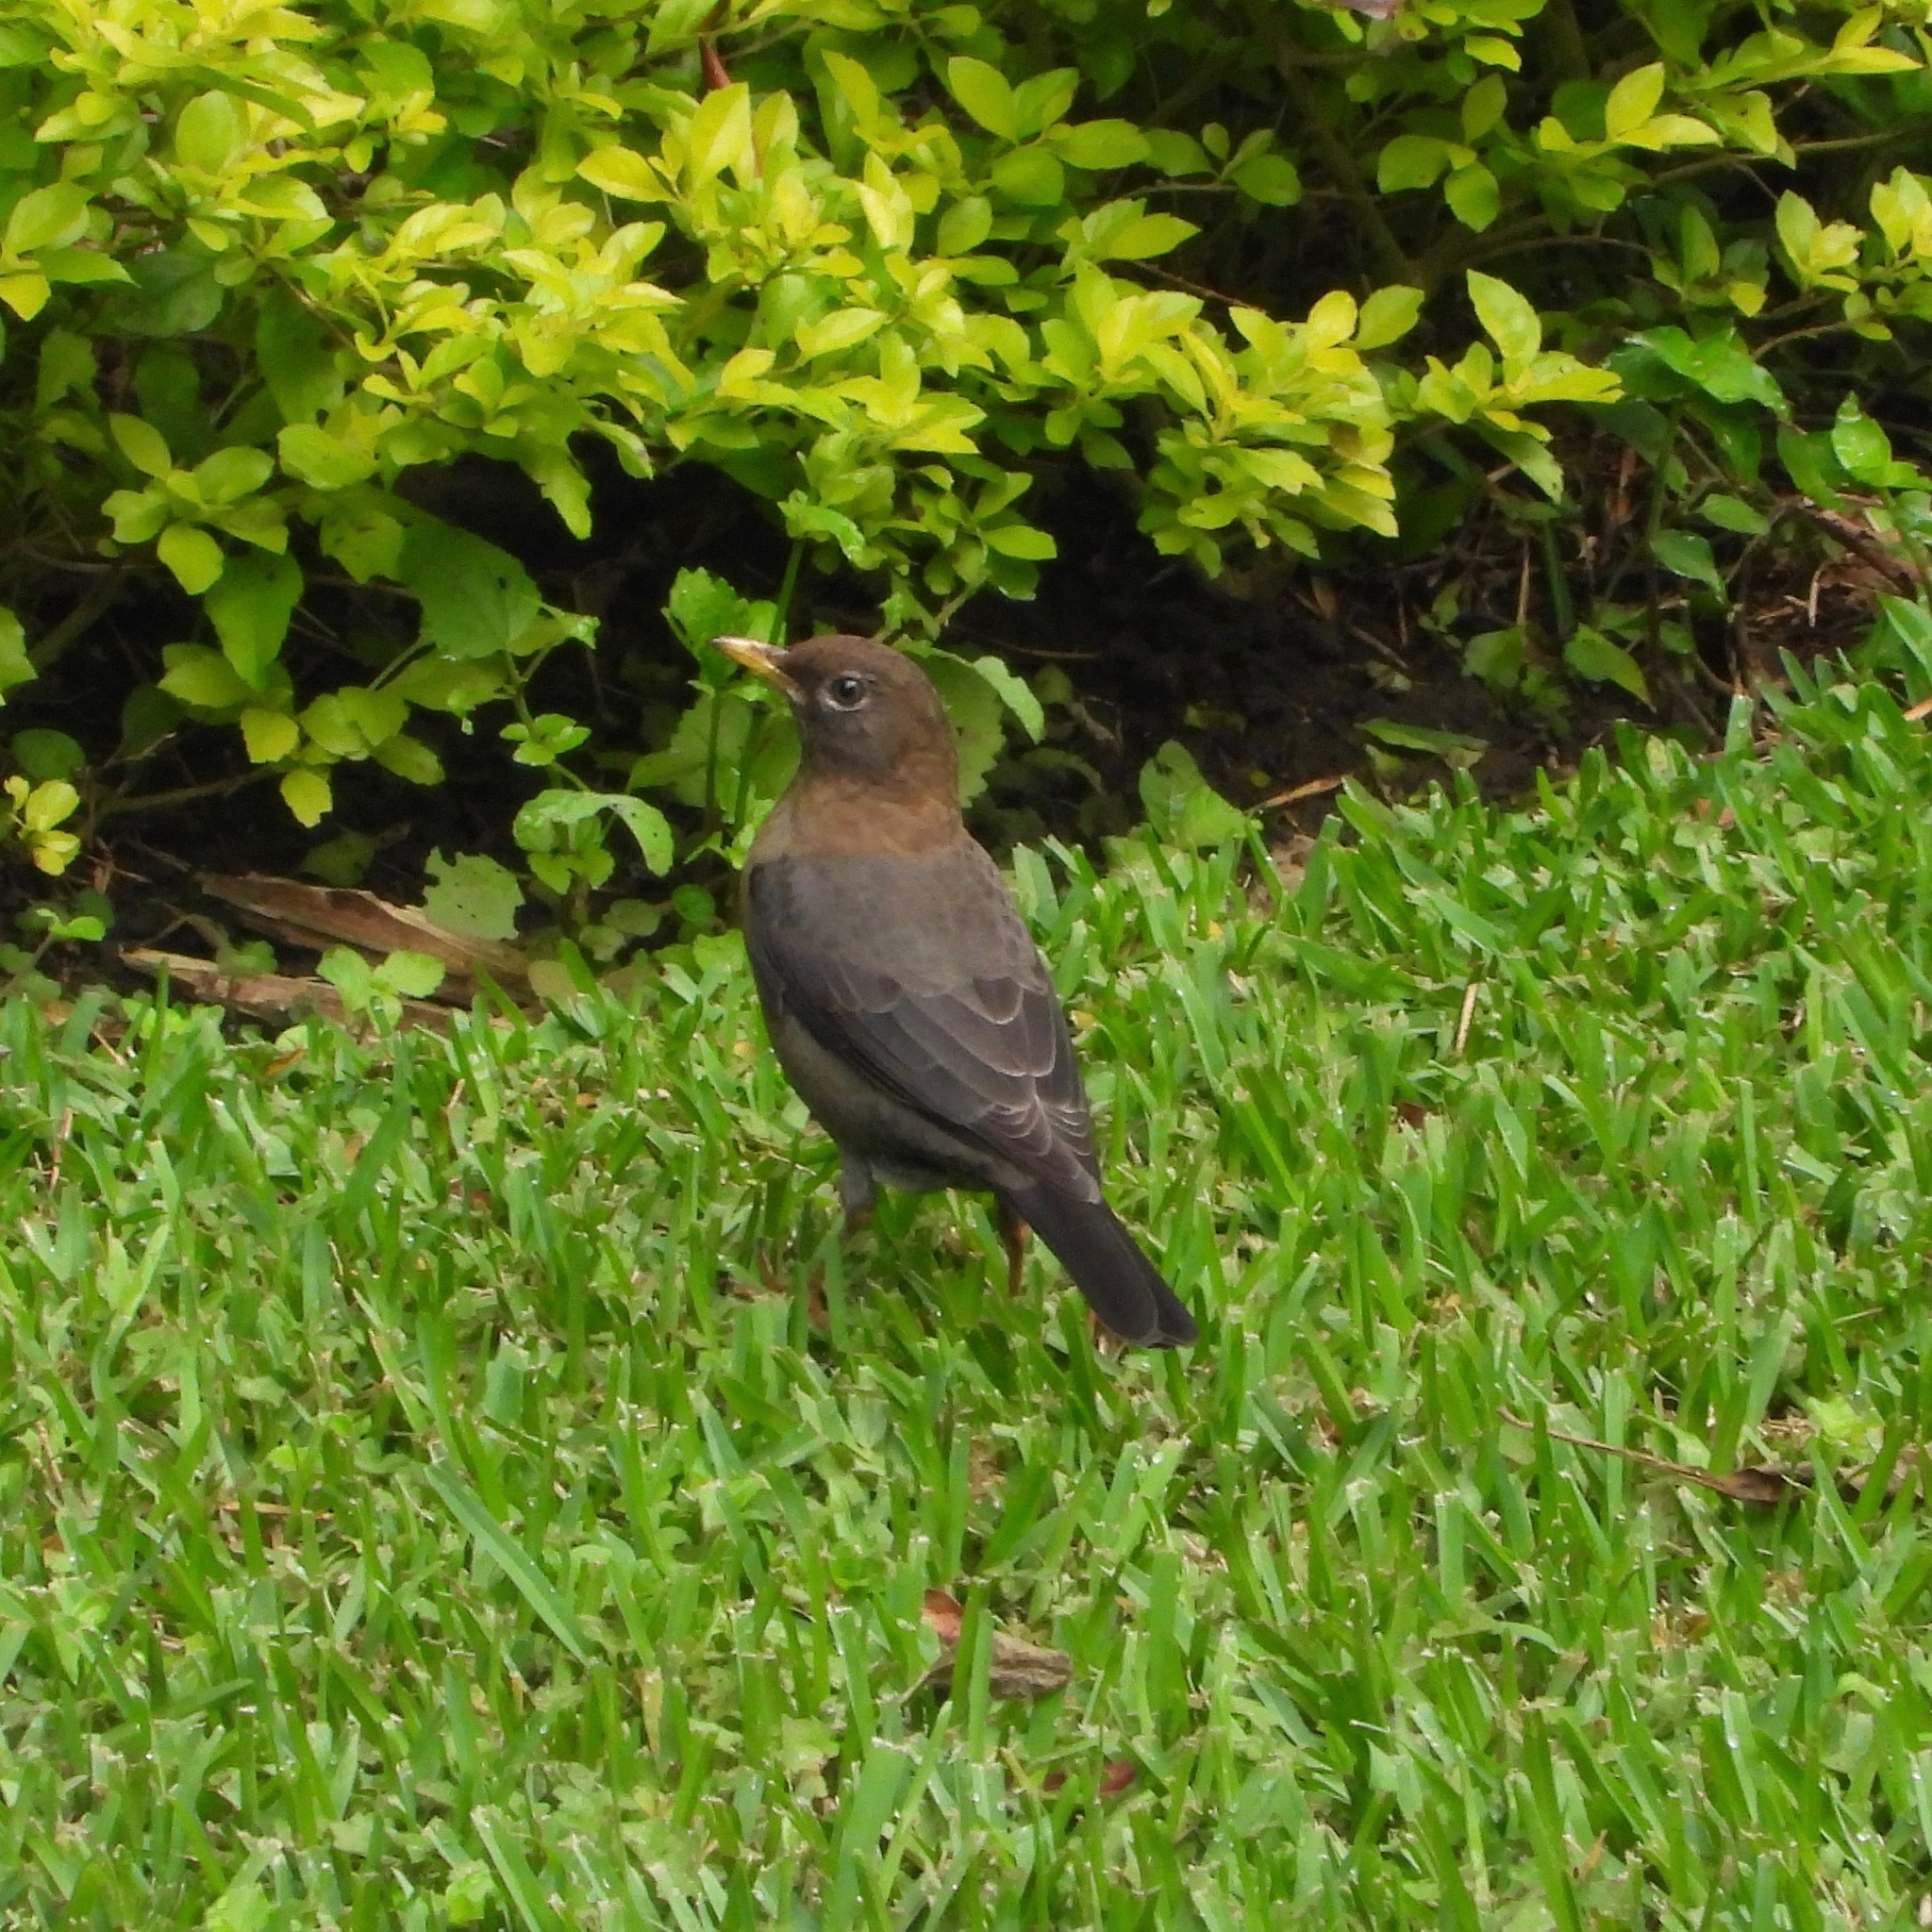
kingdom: Animalia
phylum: Chordata
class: Aves
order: Passeriformes
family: Turdidae
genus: Turdus
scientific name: Turdus rufitorques
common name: Rufous-collared thrush
